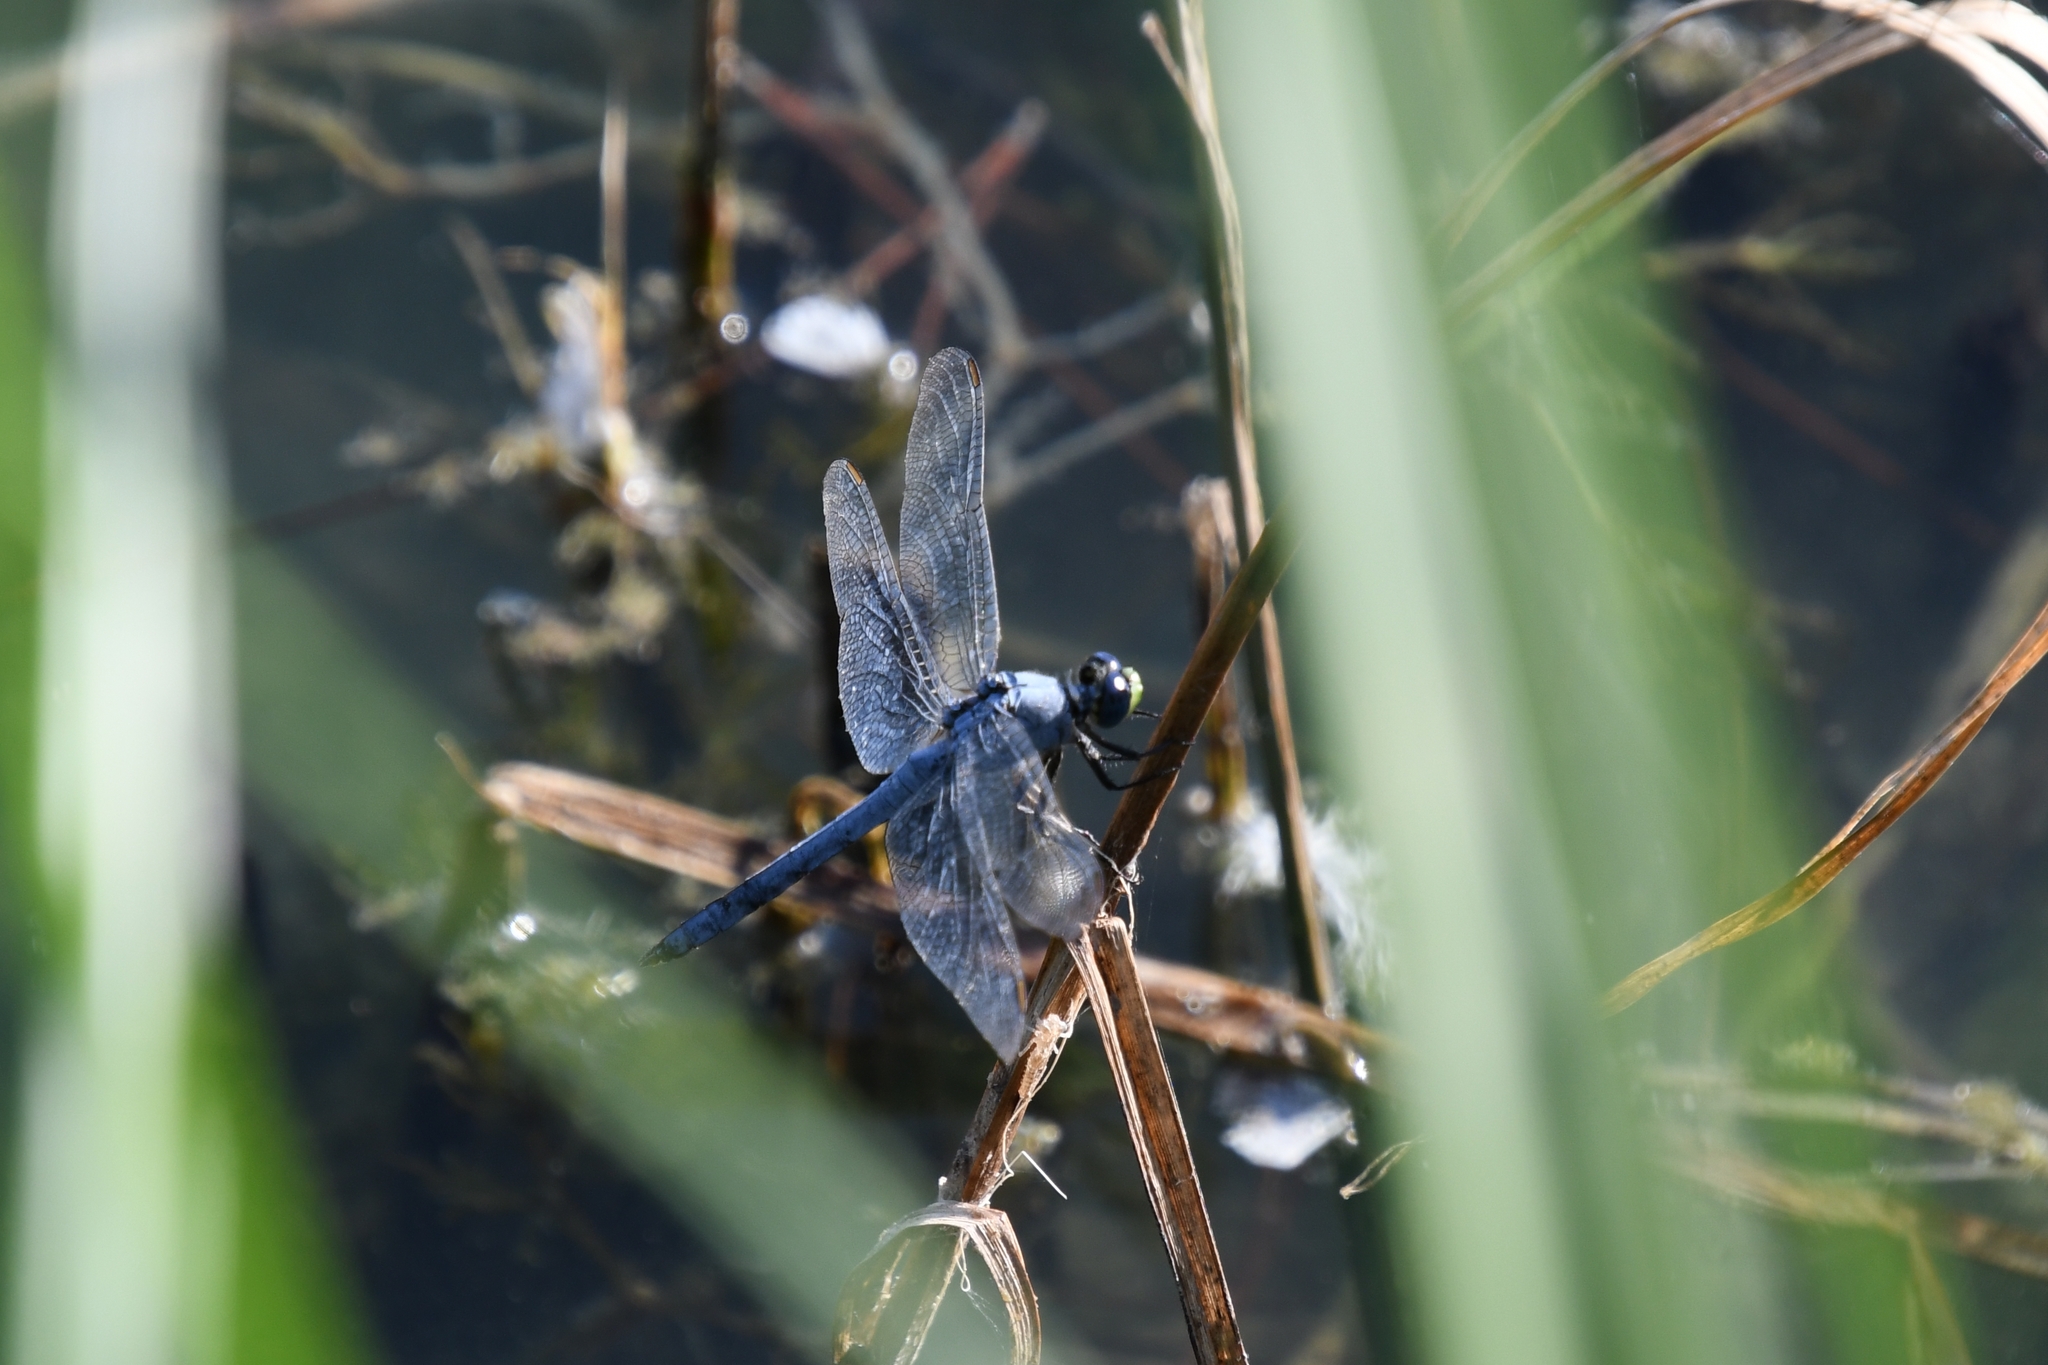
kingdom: Animalia
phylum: Arthropoda
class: Insecta
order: Odonata
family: Libellulidae
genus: Erythemis
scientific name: Erythemis collocata
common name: Western pondhawk
